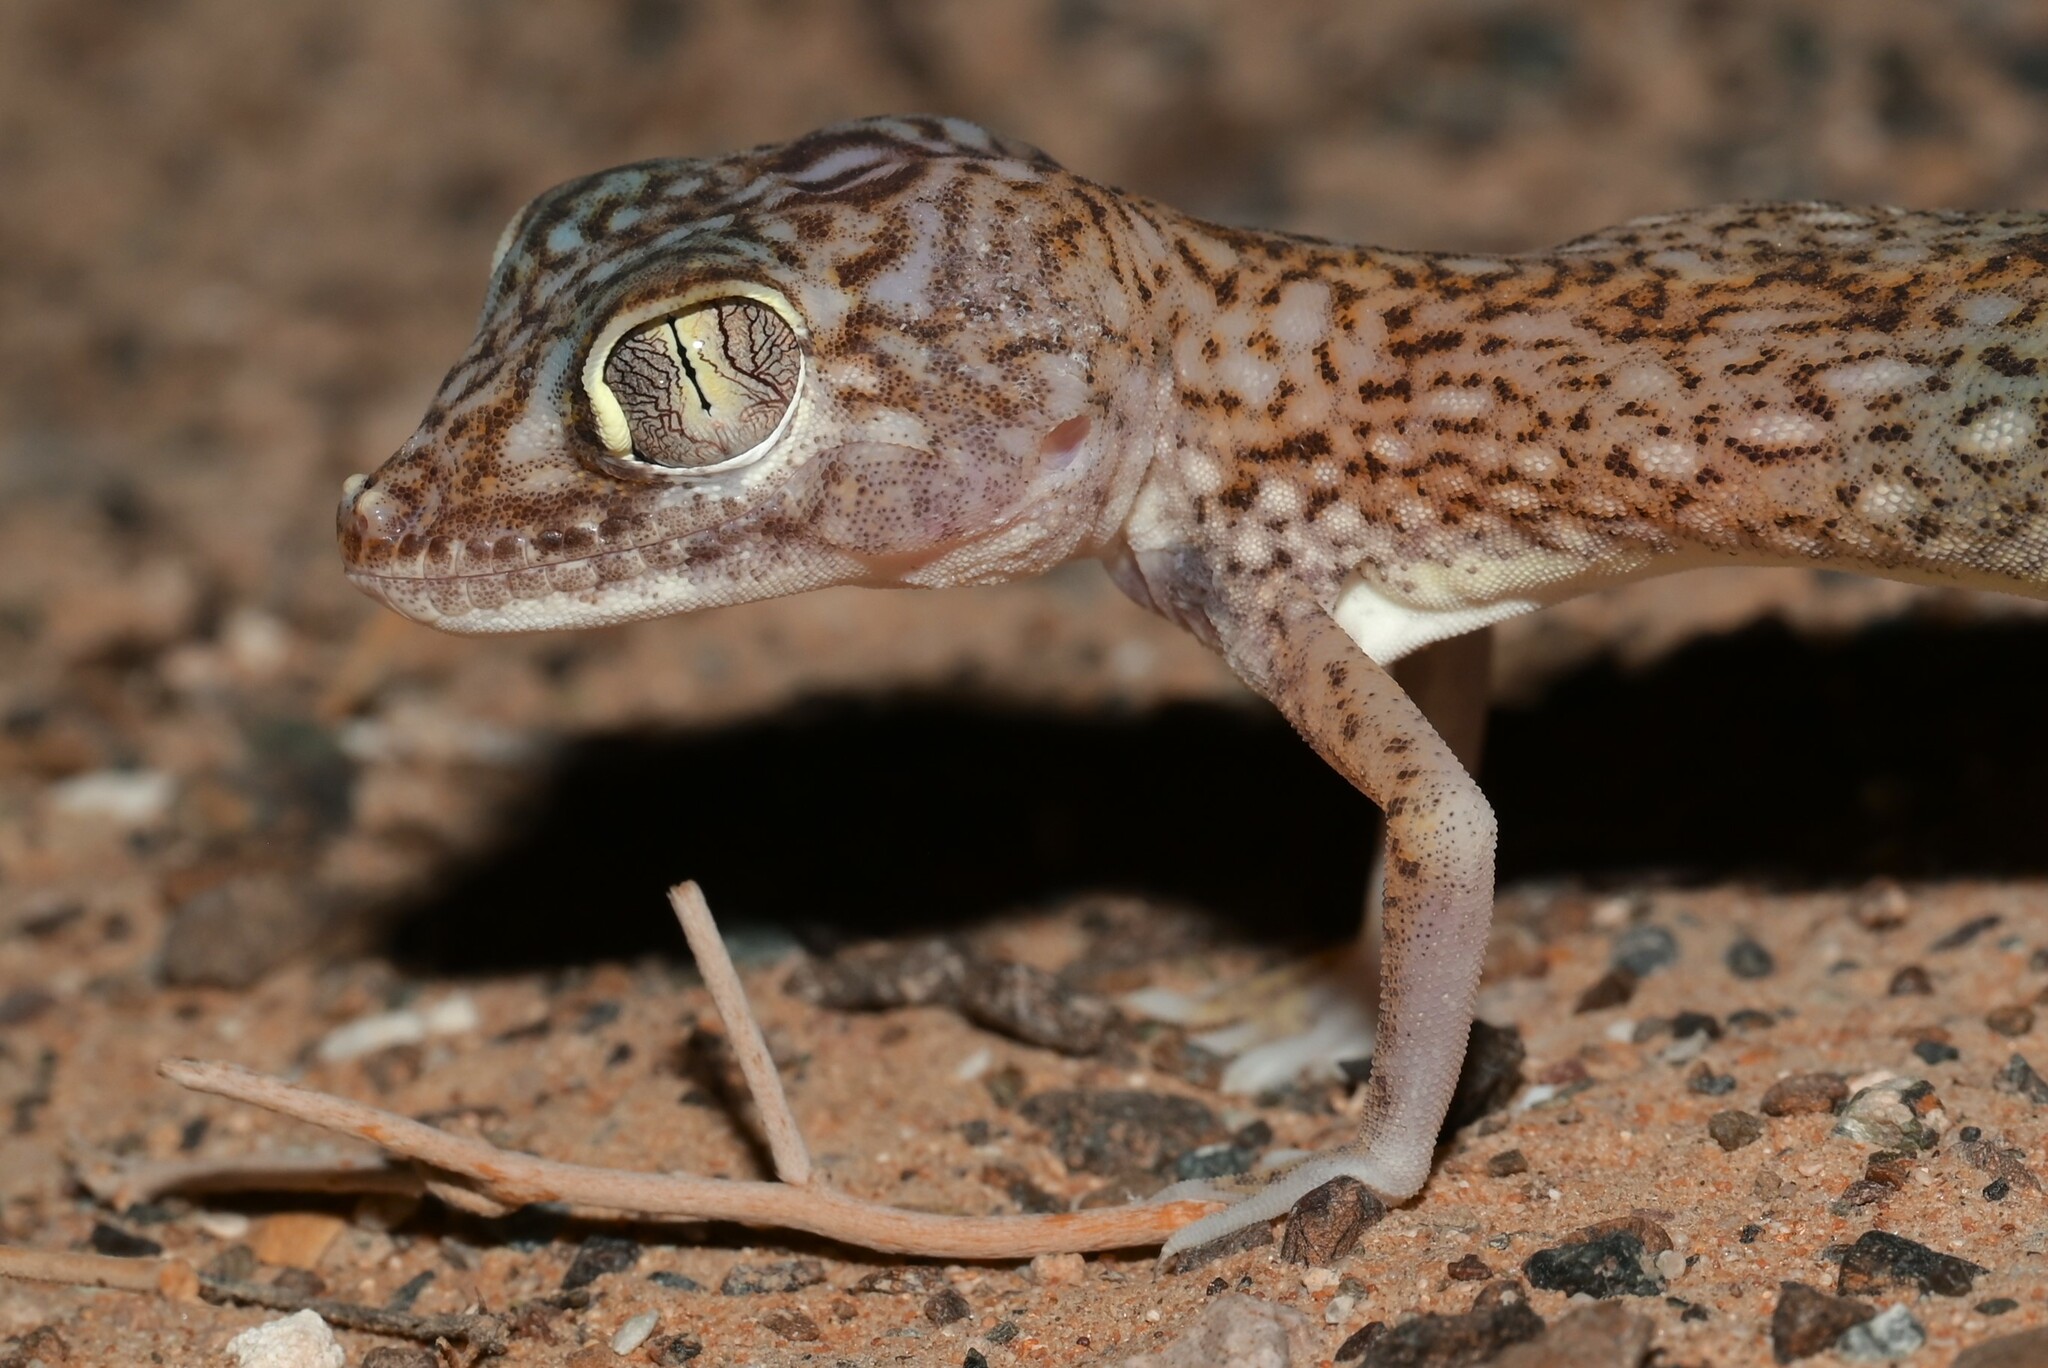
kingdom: Animalia
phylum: Chordata
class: Squamata
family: Gekkonidae
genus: Stenodactylus
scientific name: Stenodactylus doriae
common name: Dune sand gecko
